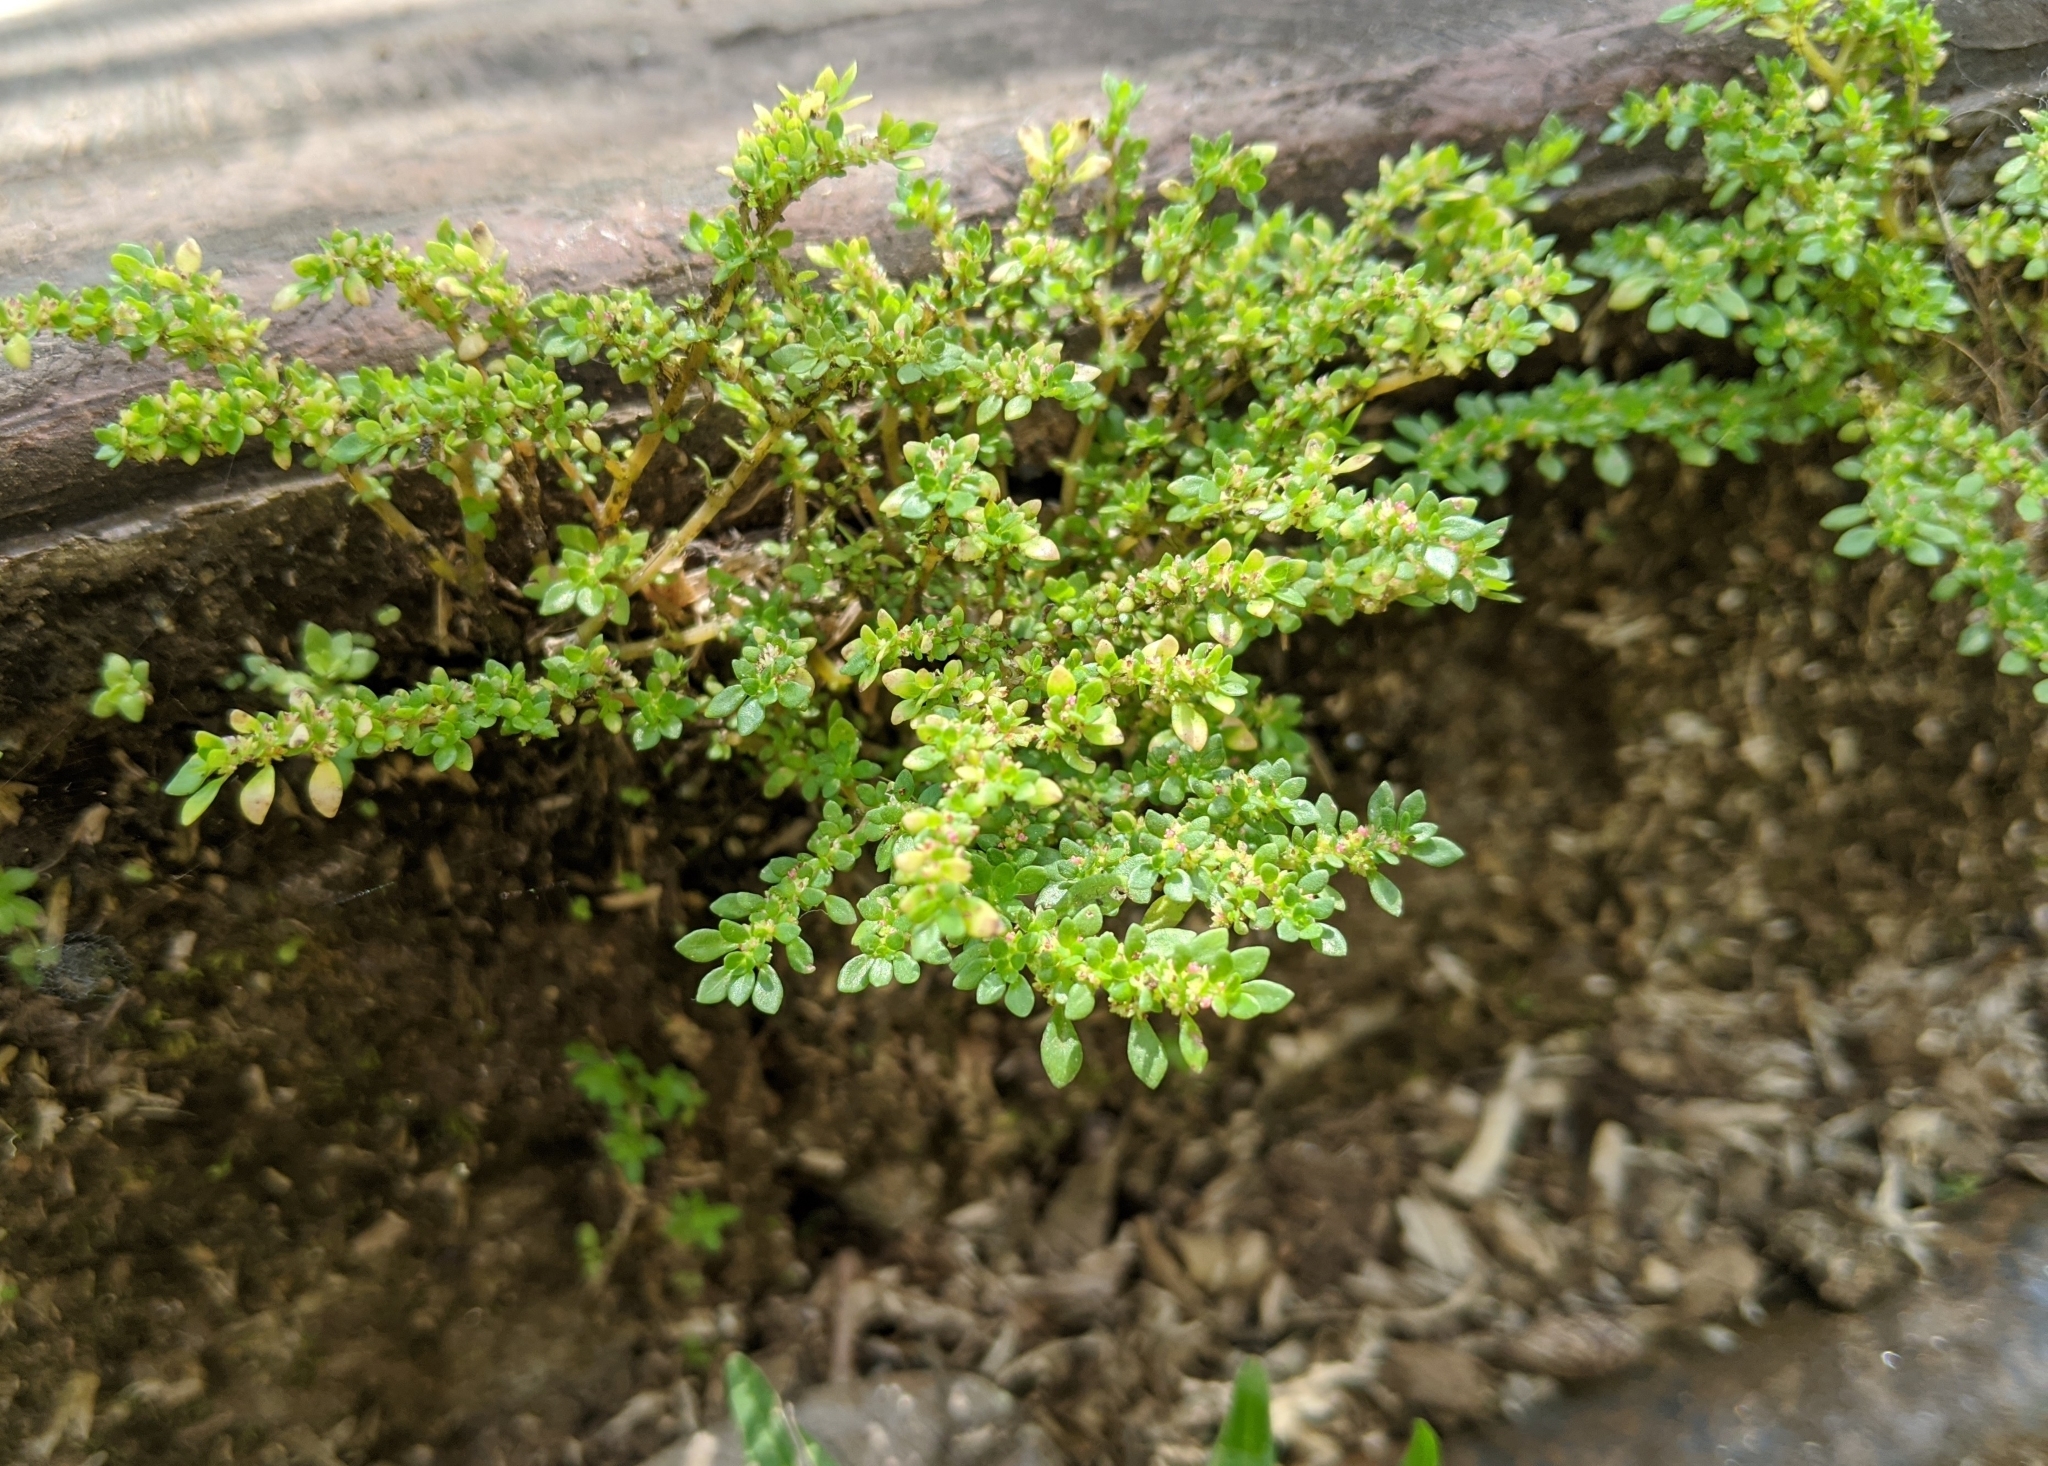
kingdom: Plantae
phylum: Tracheophyta
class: Magnoliopsida
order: Rosales
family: Urticaceae
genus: Pilea
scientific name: Pilea microphylla
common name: Artillery-plant
